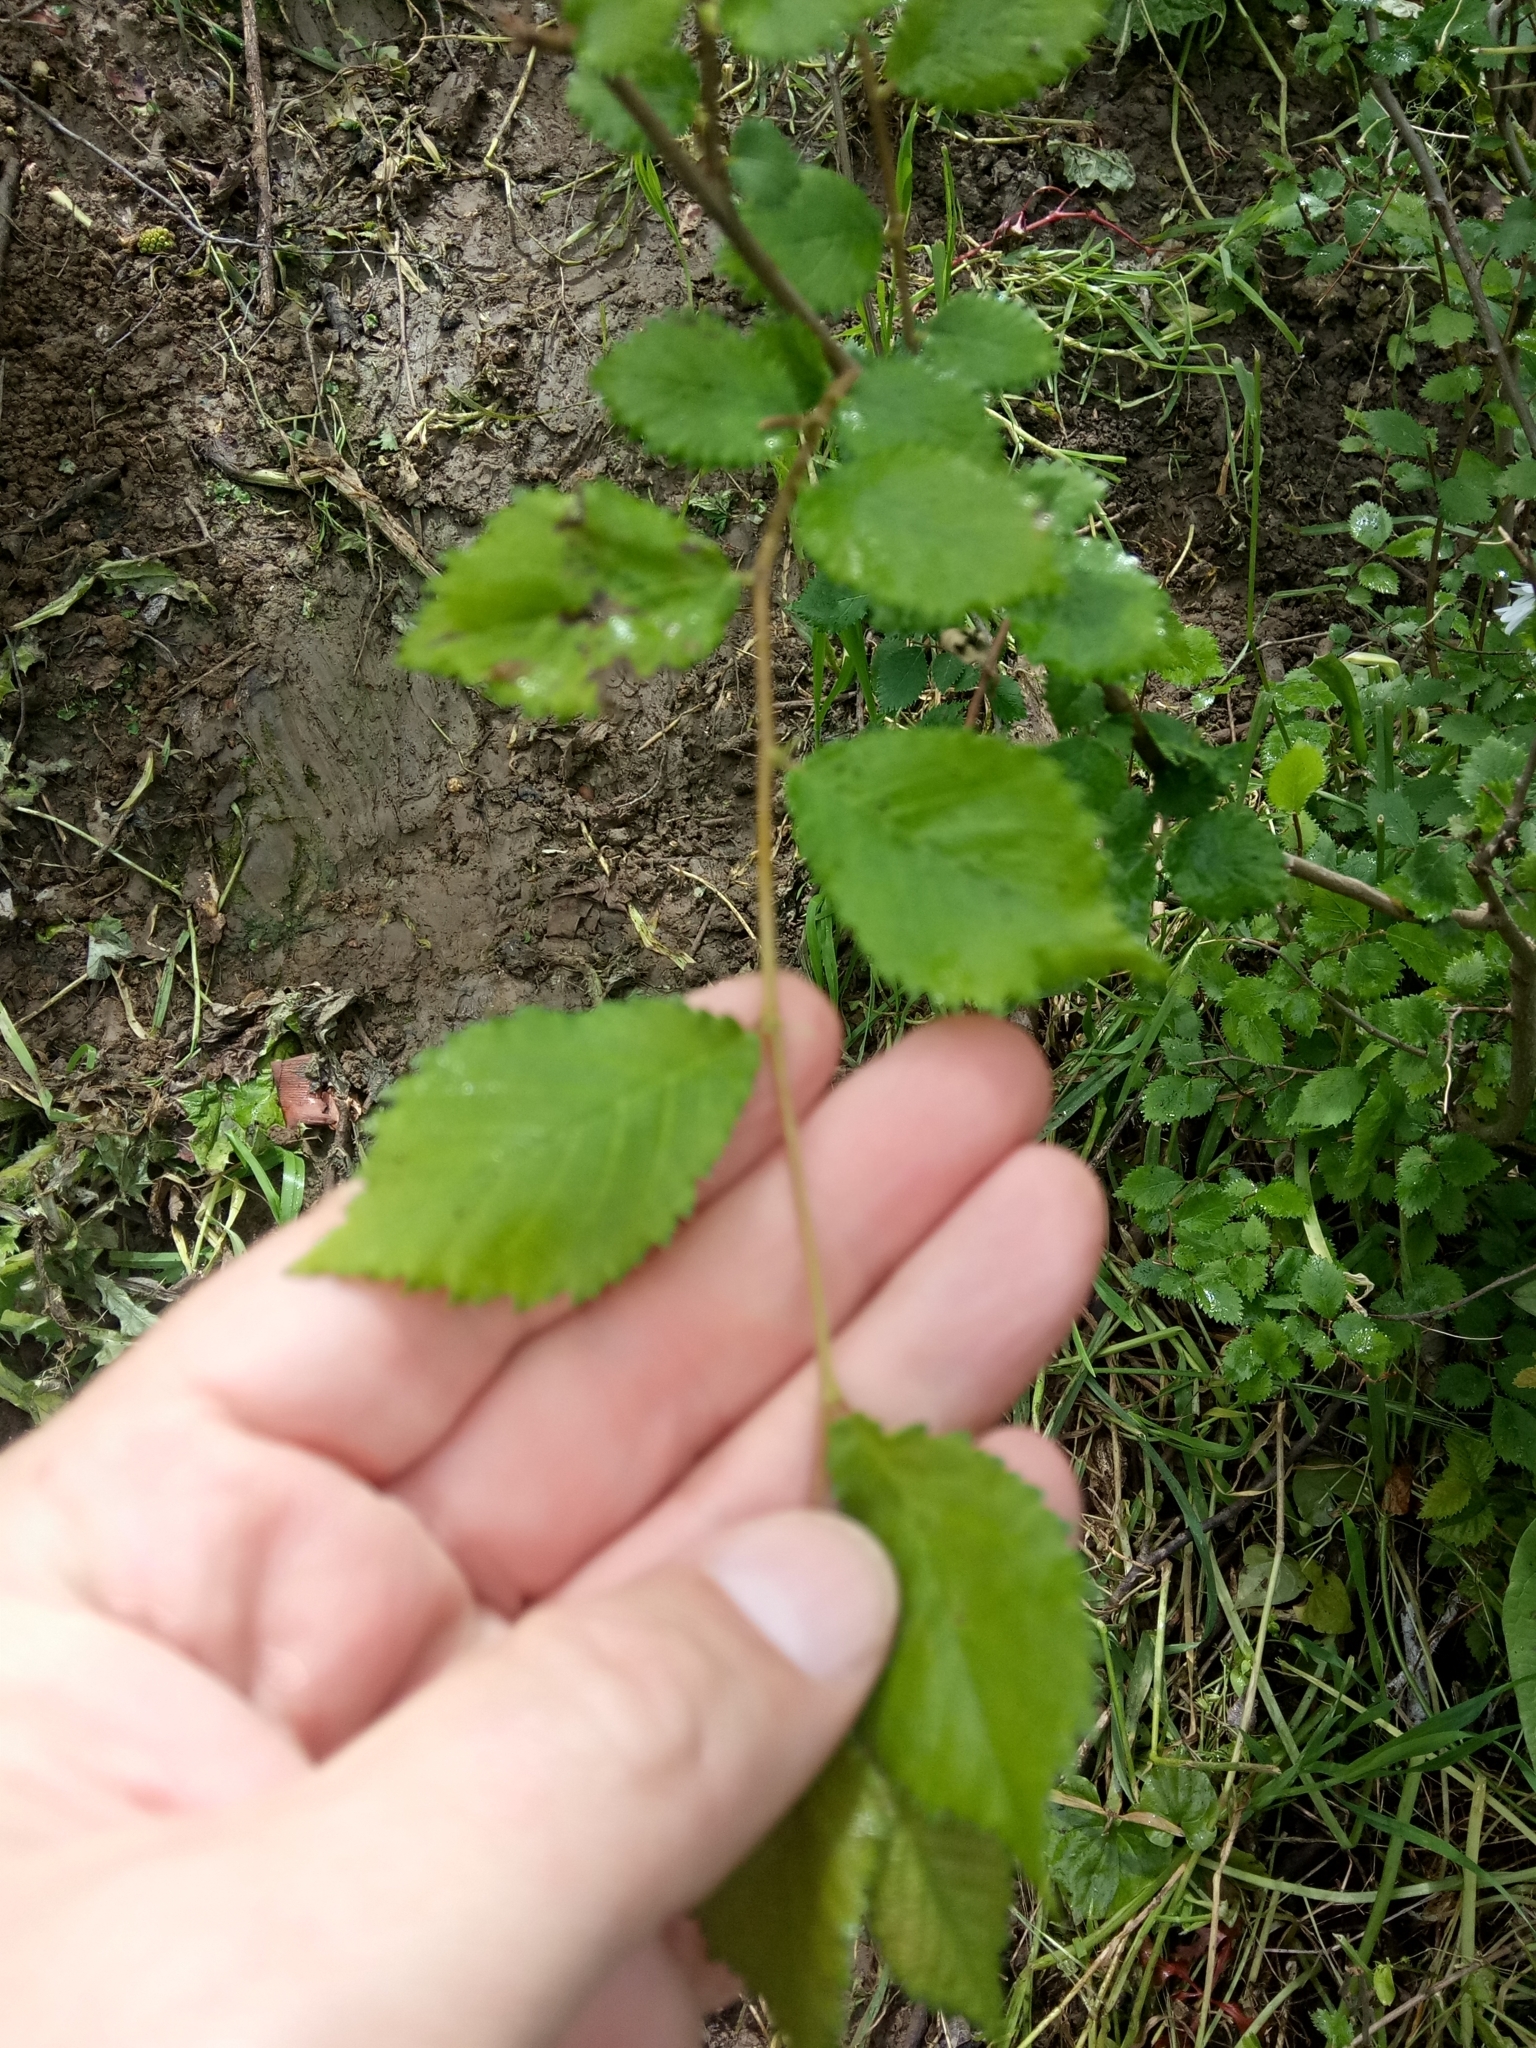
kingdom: Plantae
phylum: Tracheophyta
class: Magnoliopsida
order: Rosales
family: Ulmaceae
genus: Ulmus
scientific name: Ulmus minor
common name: Small-leaved elm
